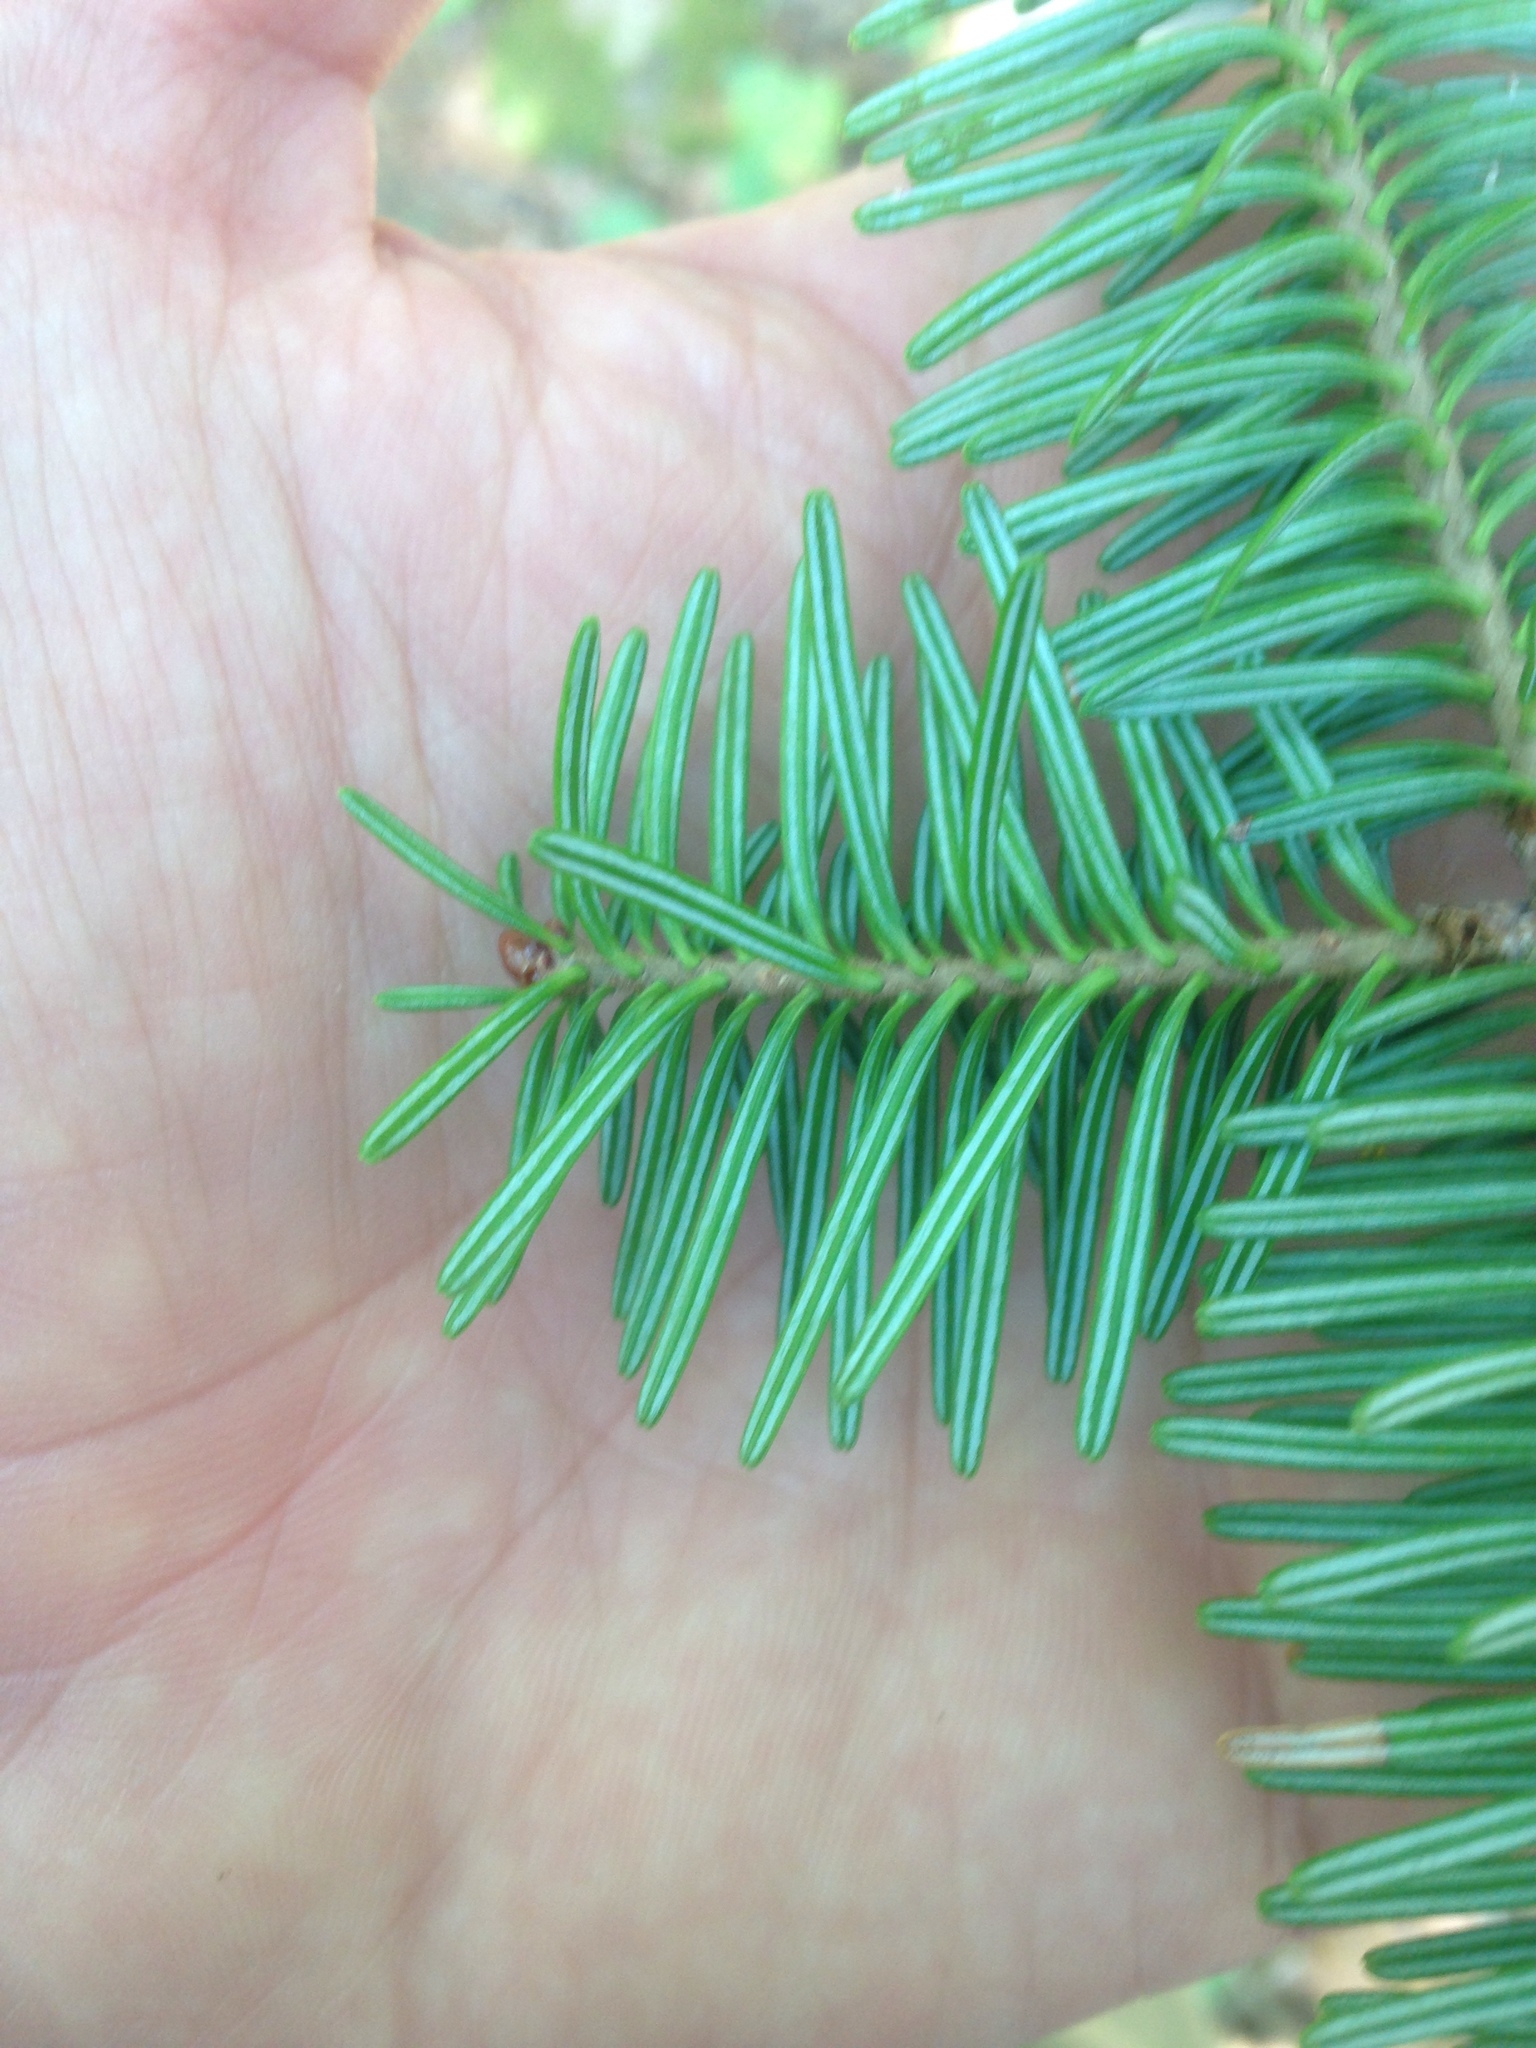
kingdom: Plantae
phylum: Tracheophyta
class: Pinopsida
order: Pinales
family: Pinaceae
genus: Abies
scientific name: Abies balsamea
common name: Balsam fir
